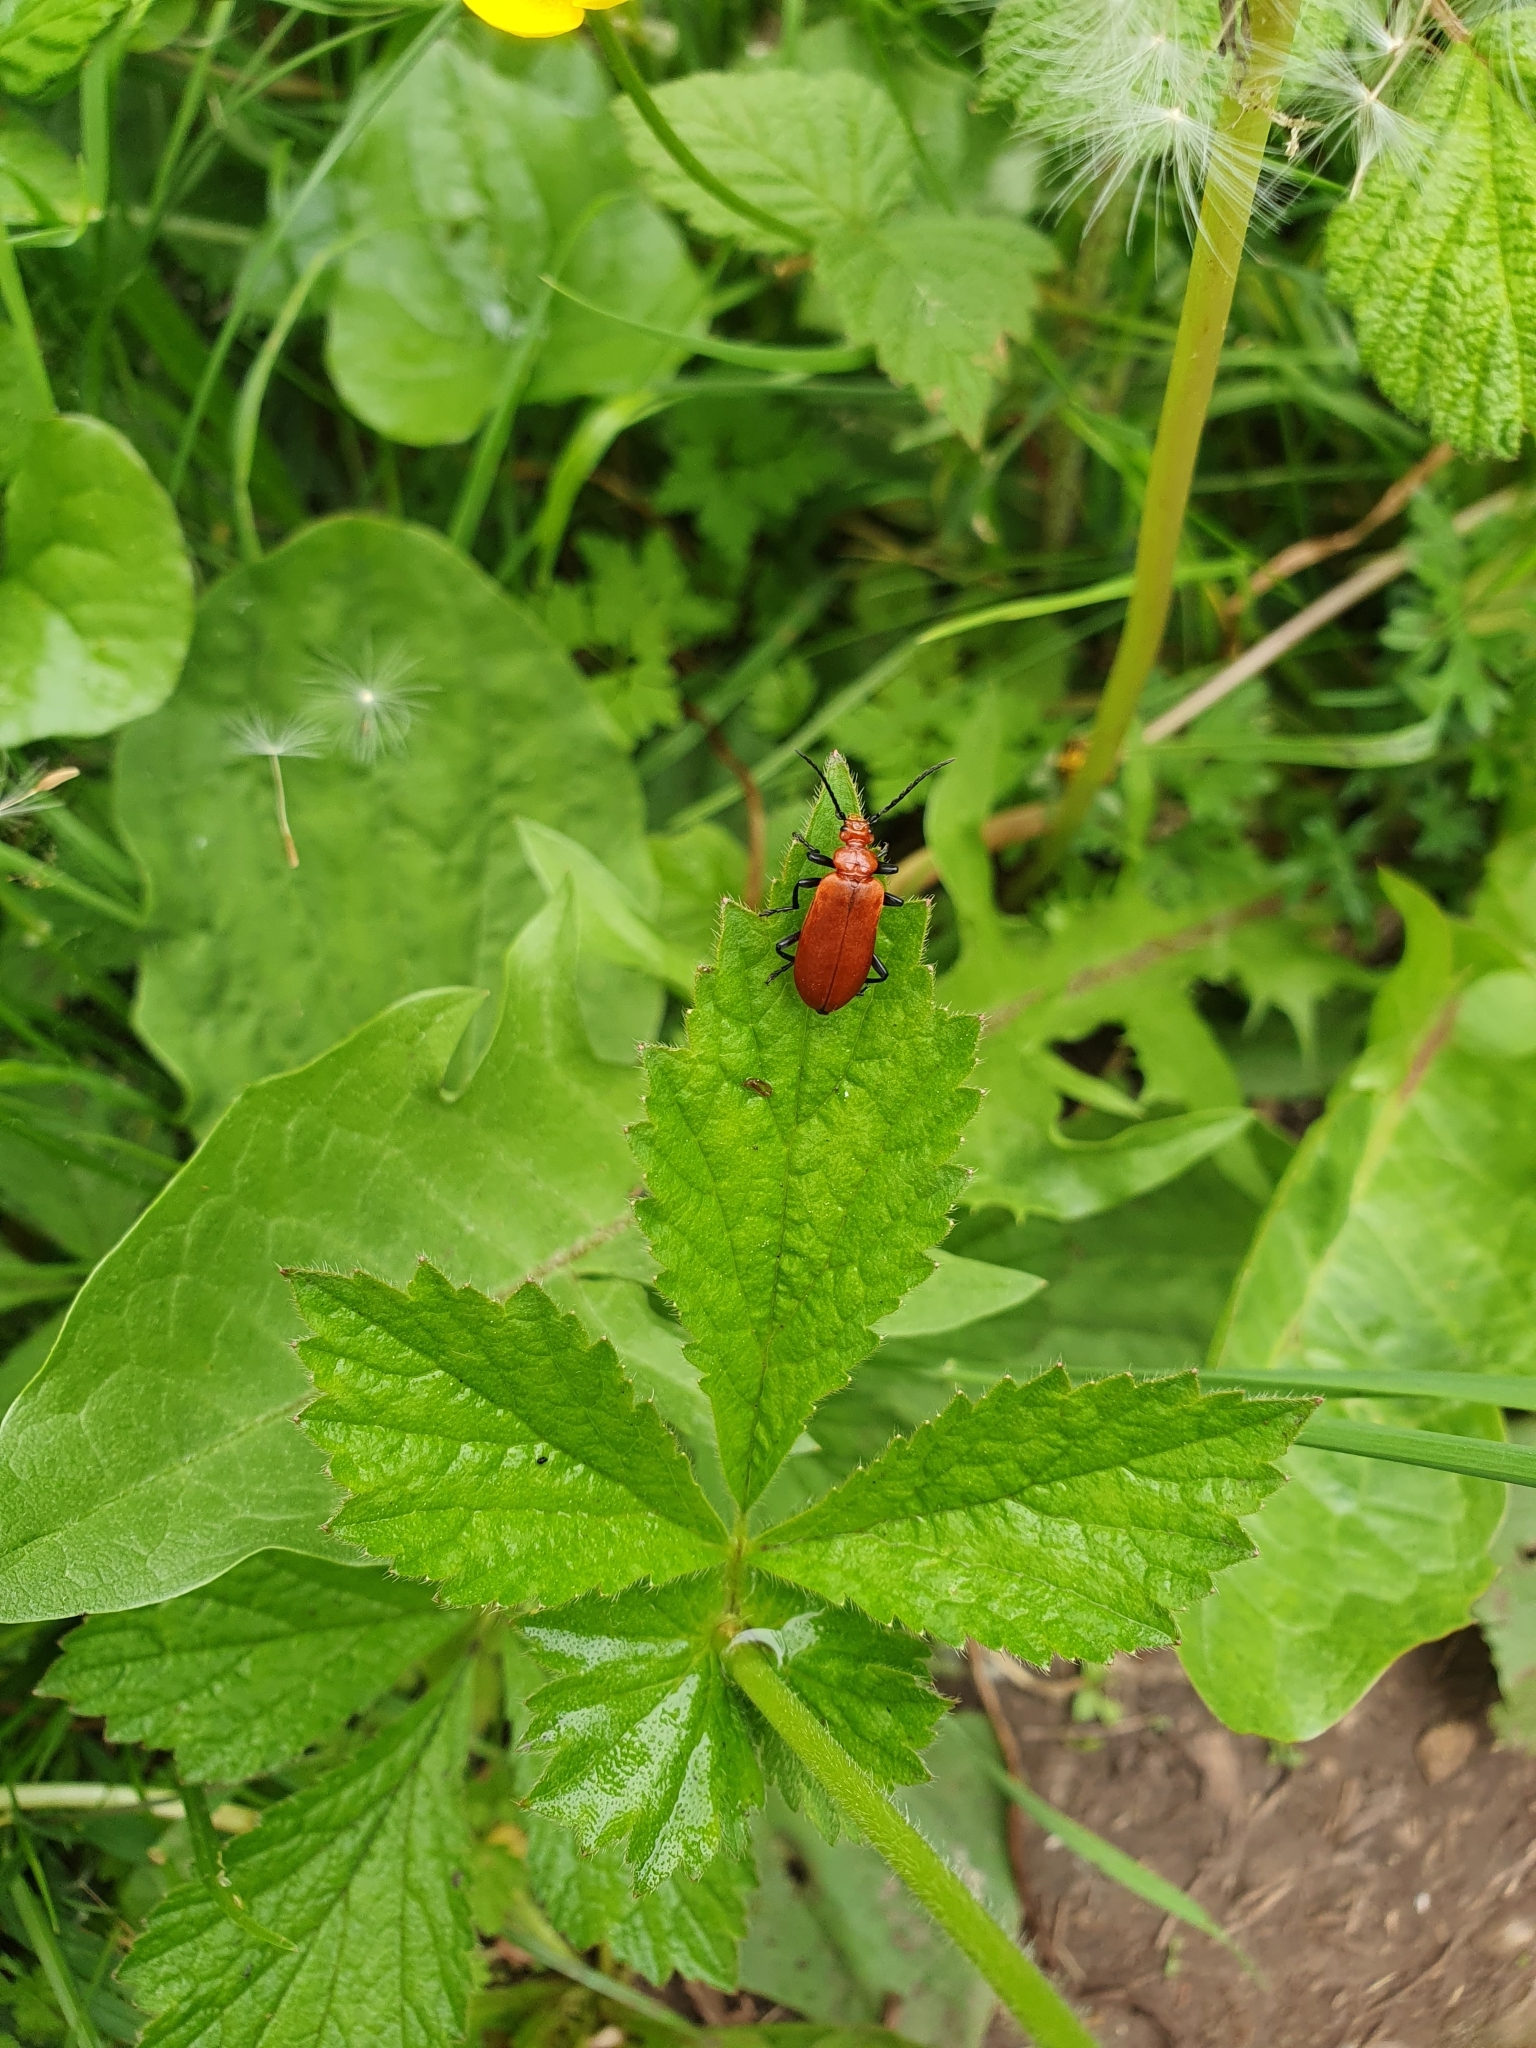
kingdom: Animalia
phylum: Arthropoda
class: Insecta
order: Coleoptera
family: Pyrochroidae
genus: Pyrochroa
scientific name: Pyrochroa serraticornis
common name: Red-headed cardinal beetle
